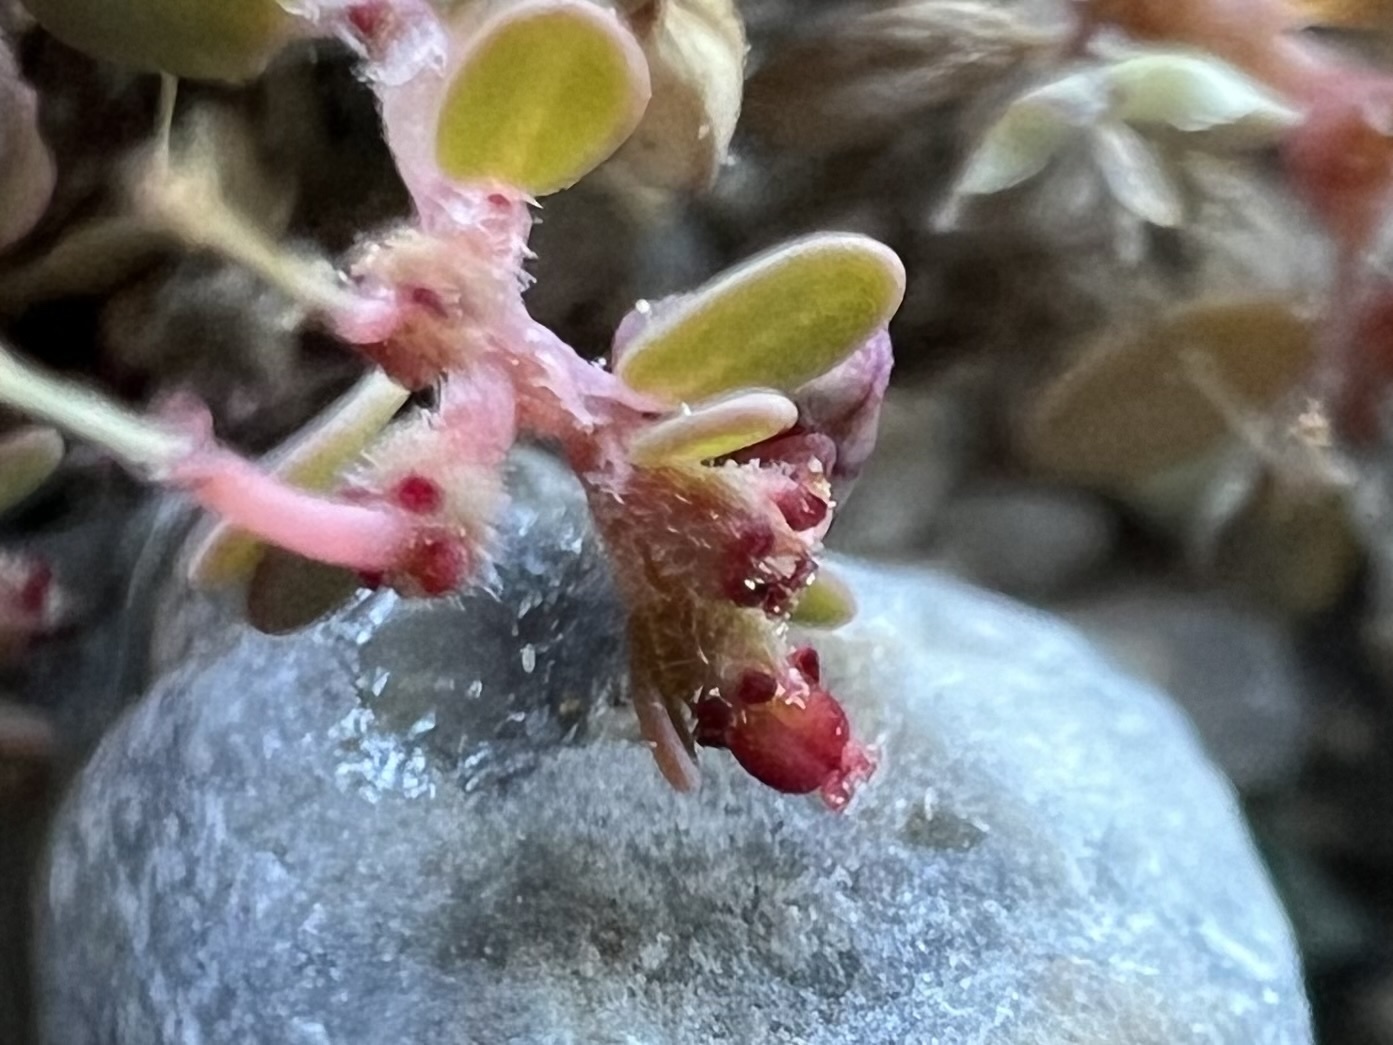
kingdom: Plantae
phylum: Tracheophyta
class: Magnoliopsida
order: Malpighiales
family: Euphorbiaceae
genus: Euphorbia
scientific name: Euphorbia micromera
